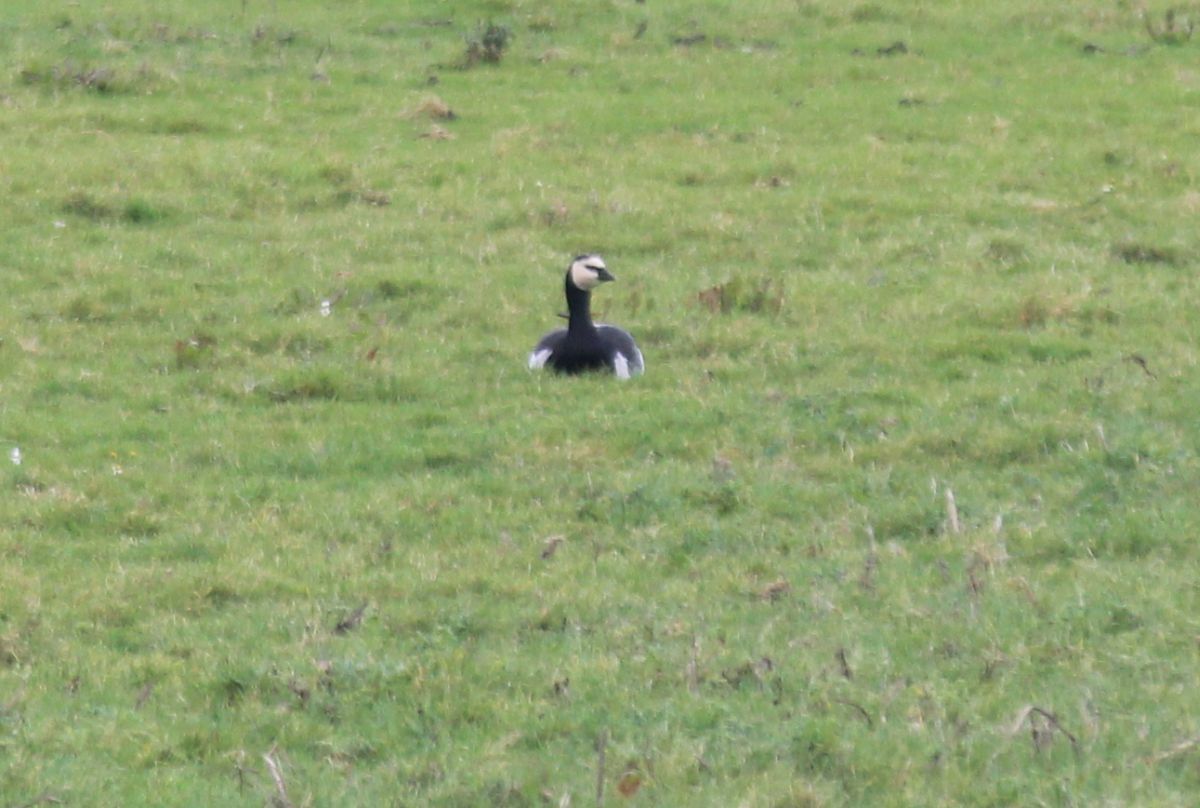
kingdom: Animalia
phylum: Chordata
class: Aves
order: Anseriformes
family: Anatidae
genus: Branta
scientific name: Branta leucopsis
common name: Barnacle goose
